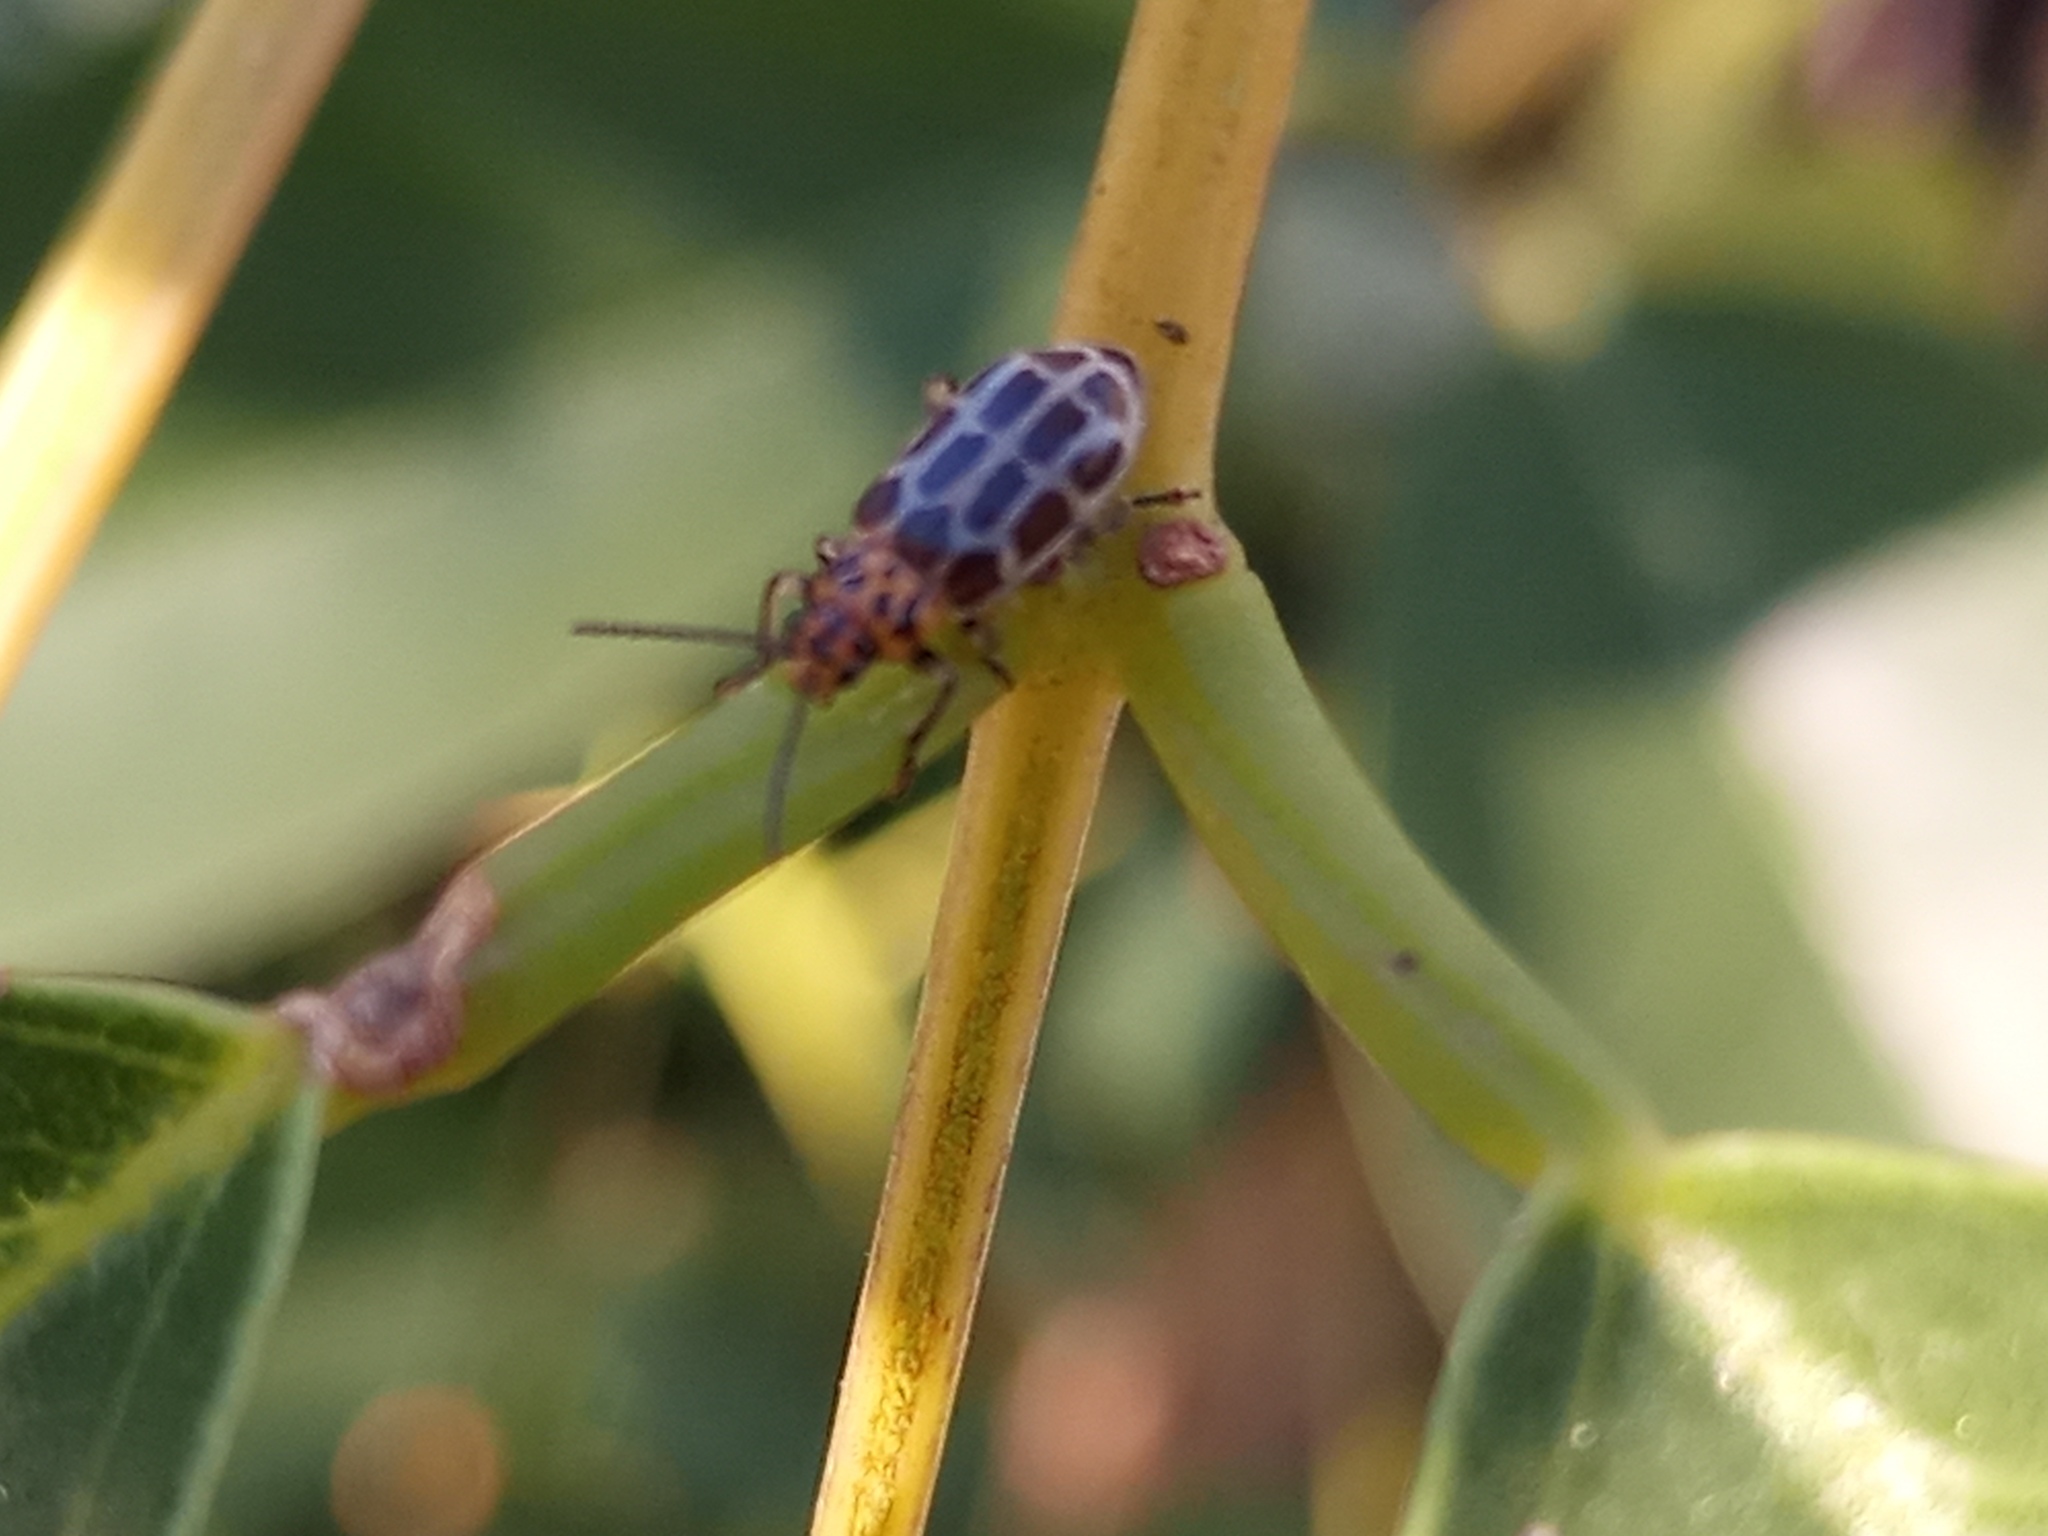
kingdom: Animalia
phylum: Arthropoda
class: Insecta
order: Coleoptera
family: Chrysomelidae
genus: Anisobrotica
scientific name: Anisobrotica
